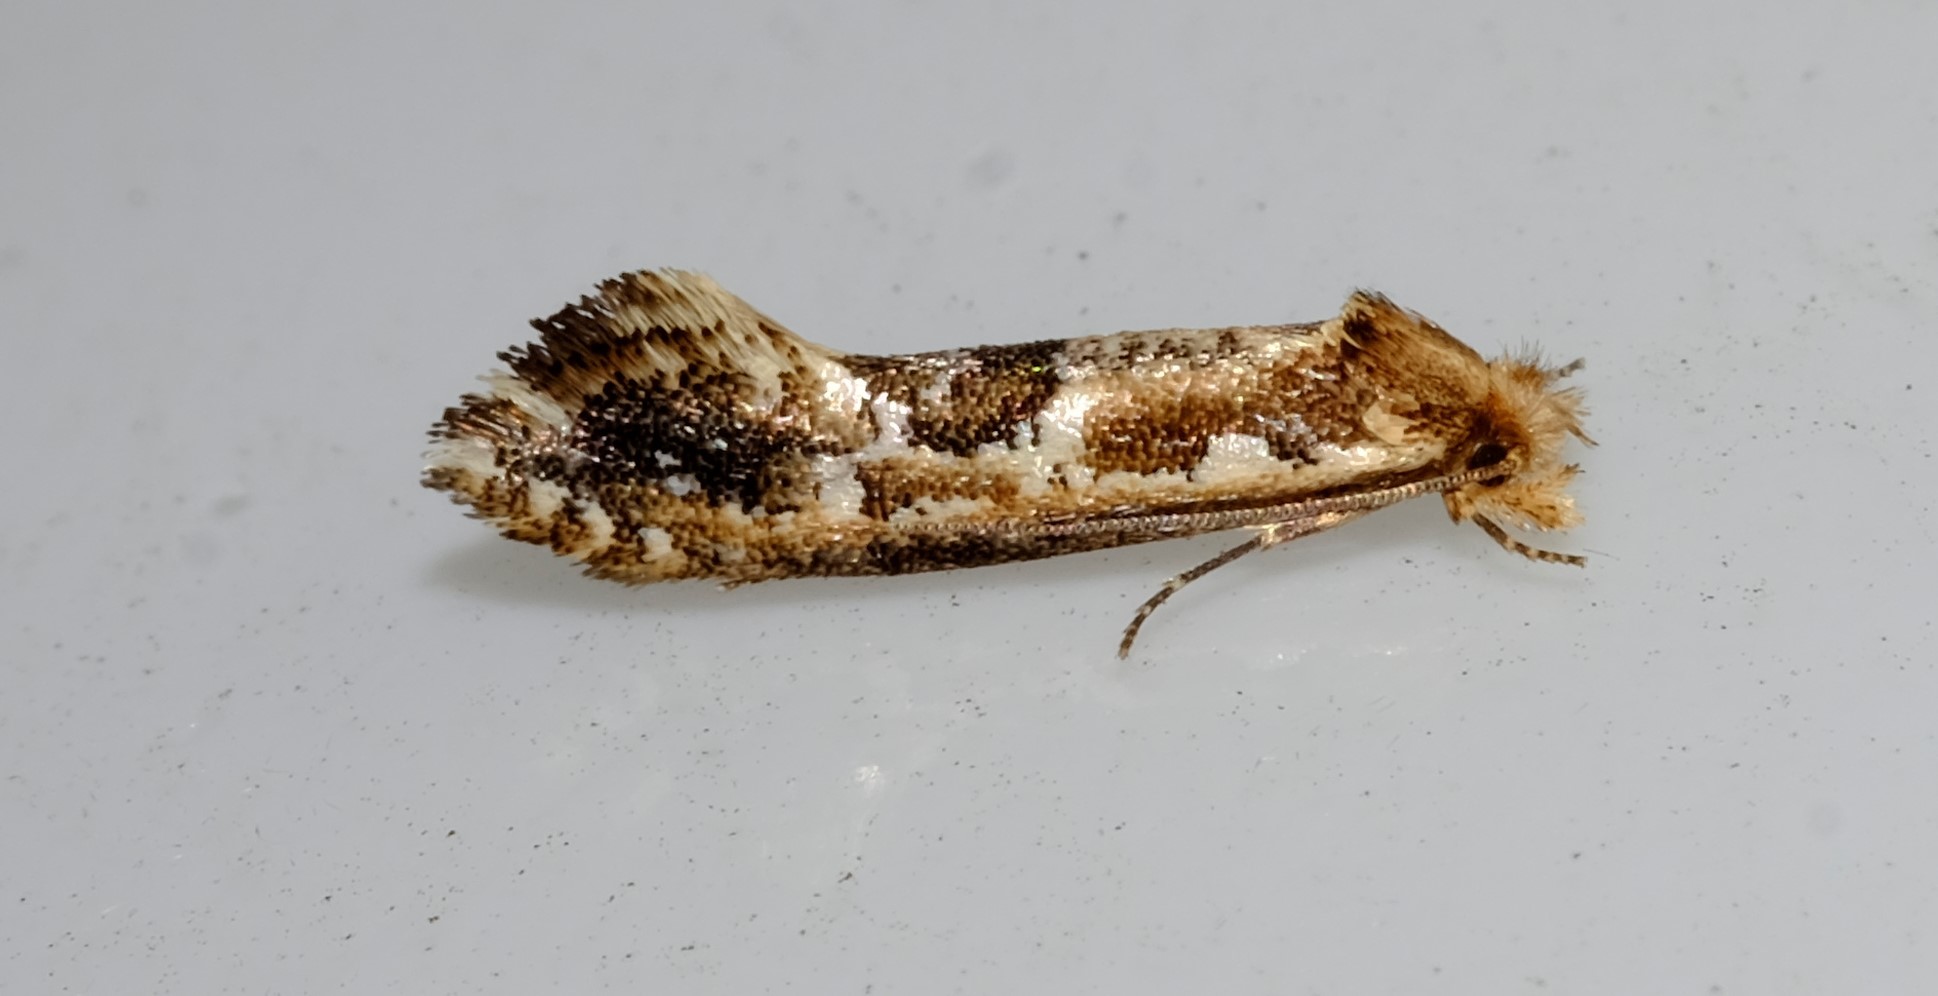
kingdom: Animalia
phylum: Arthropoda
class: Insecta
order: Lepidoptera
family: Tineidae
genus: Moerarchis
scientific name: Moerarchis inconcisella
